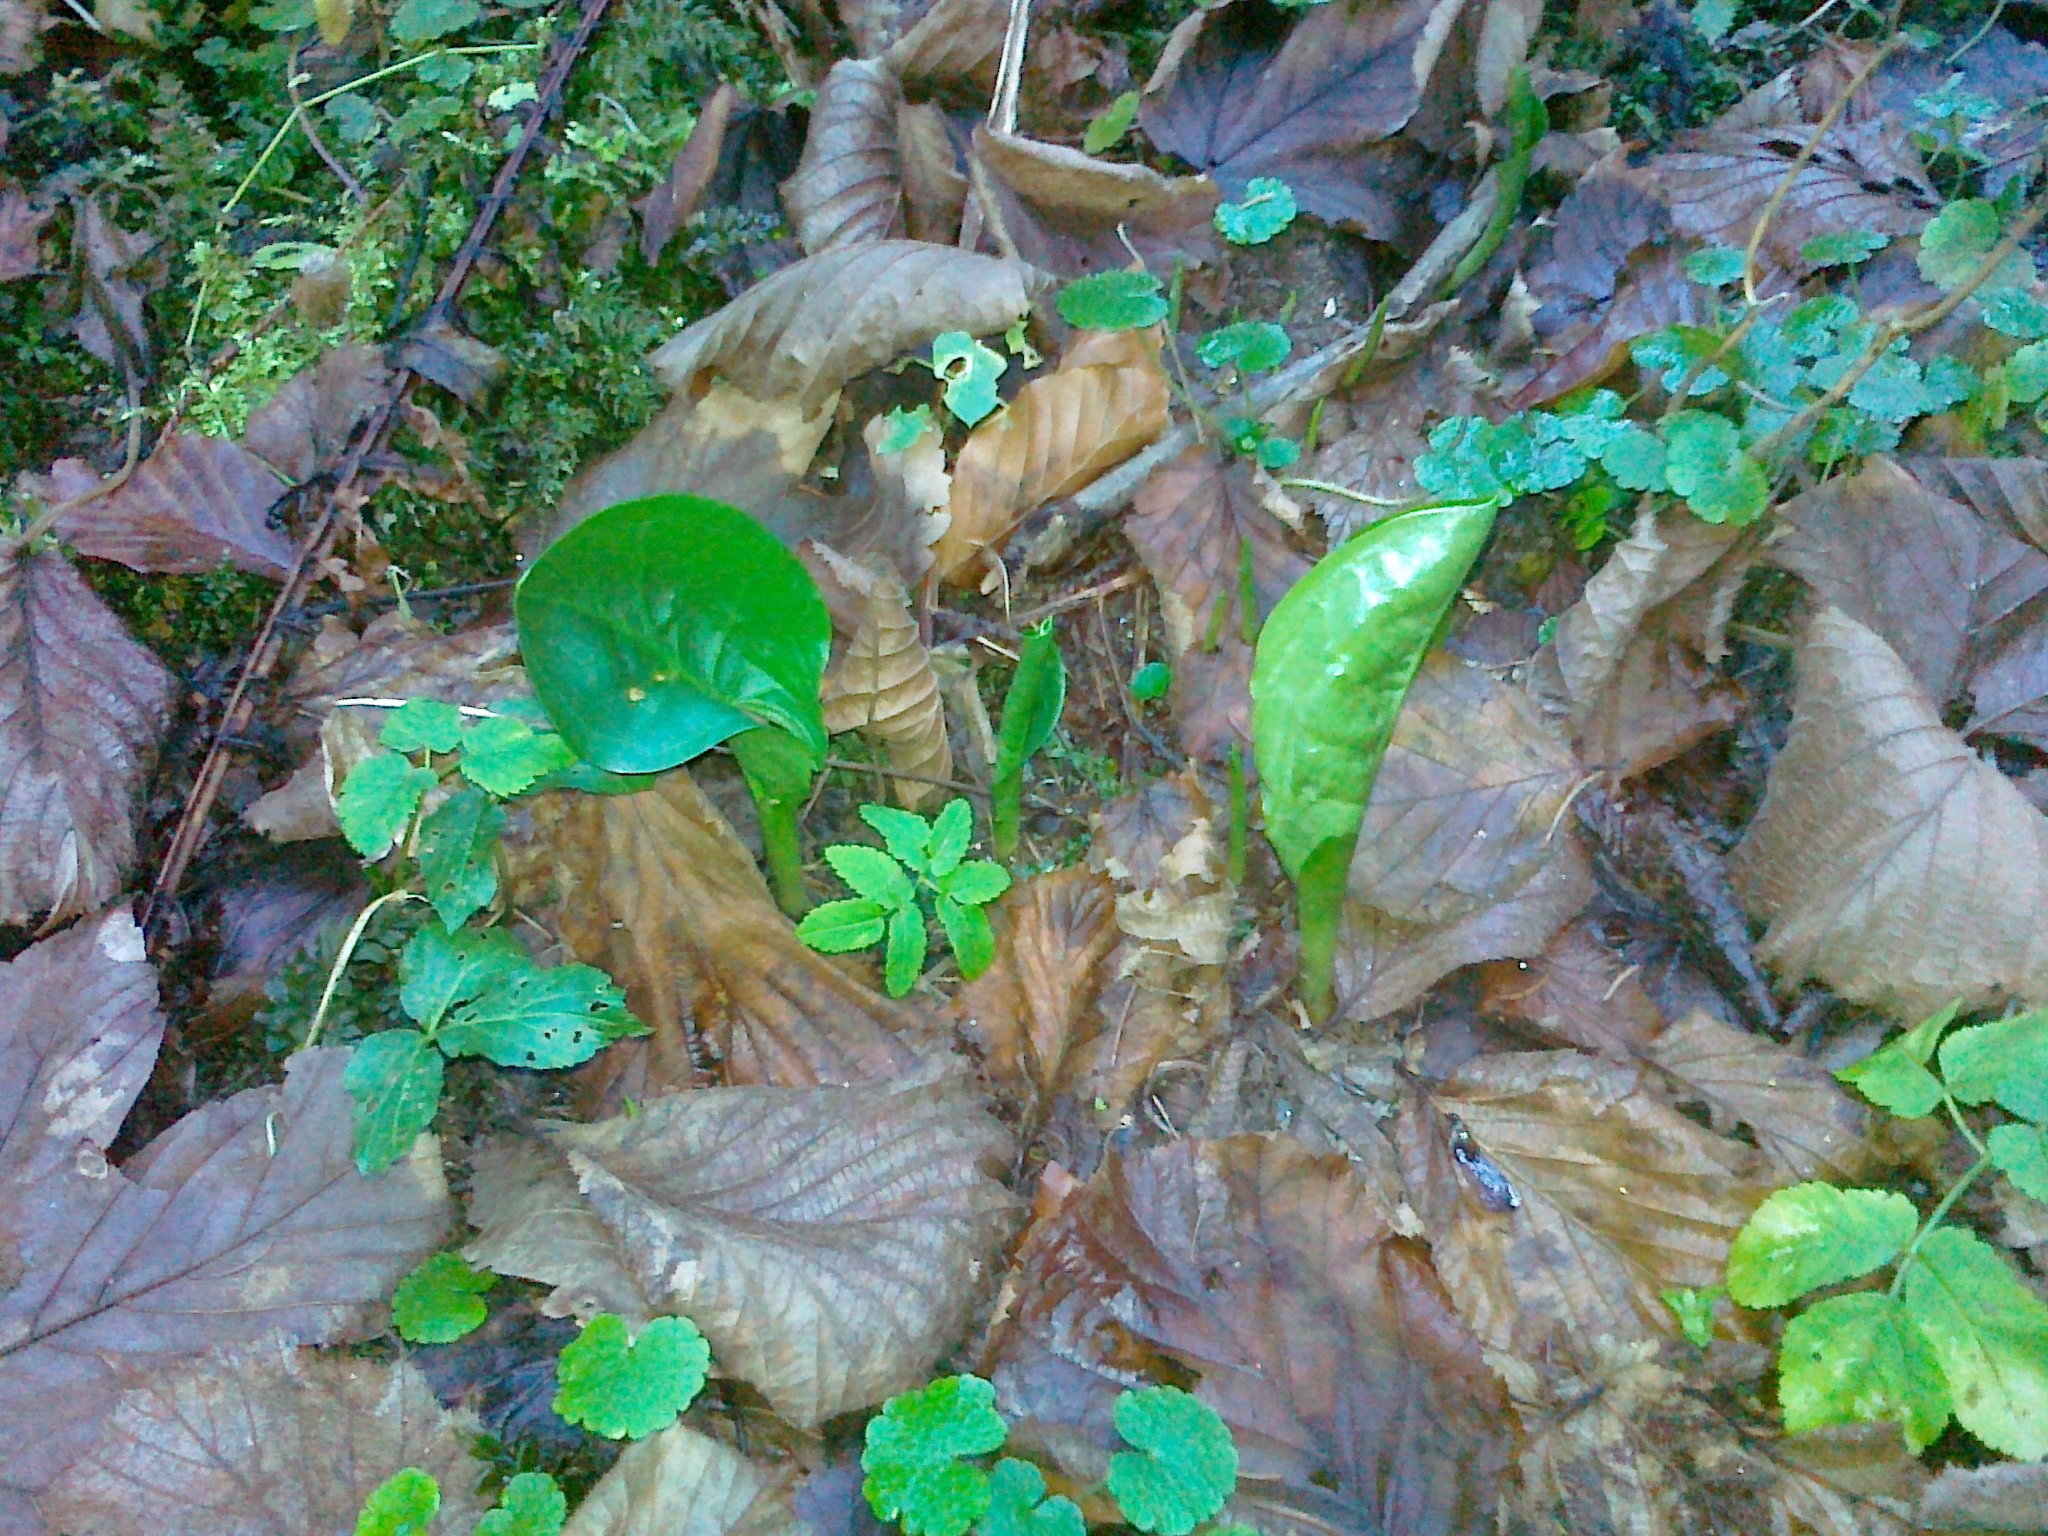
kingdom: Plantae
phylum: Tracheophyta
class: Liliopsida
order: Alismatales
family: Araceae
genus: Arum
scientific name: Arum maculatum
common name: Lords-and-ladies
